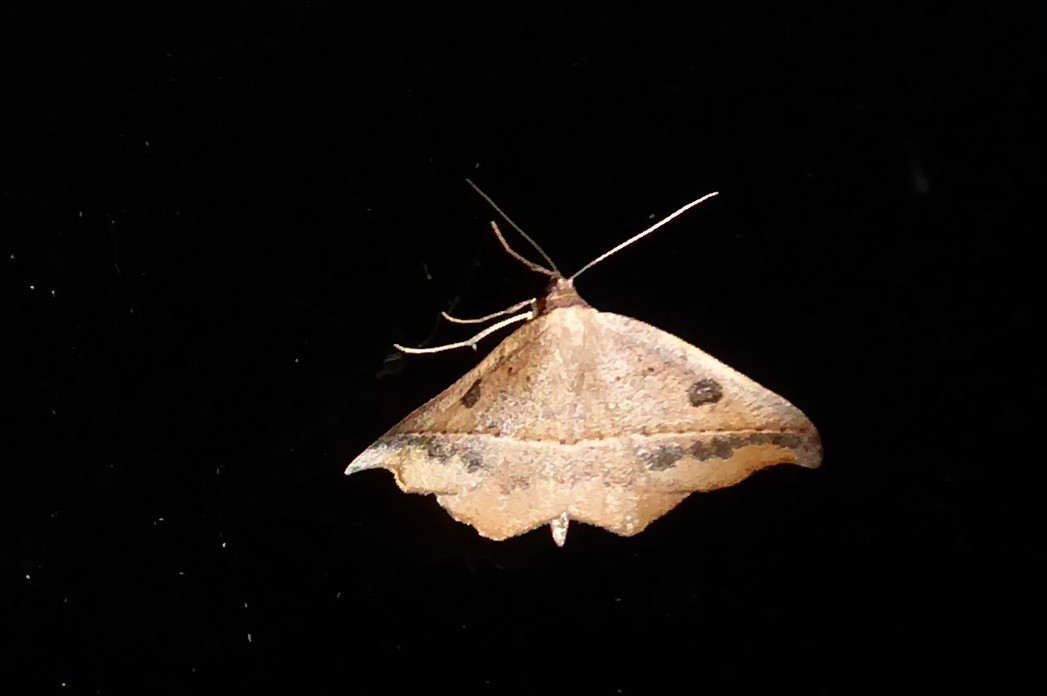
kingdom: Animalia
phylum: Arthropoda
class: Insecta
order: Lepidoptera
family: Geometridae
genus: Sarisa
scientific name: Sarisa muriferata
